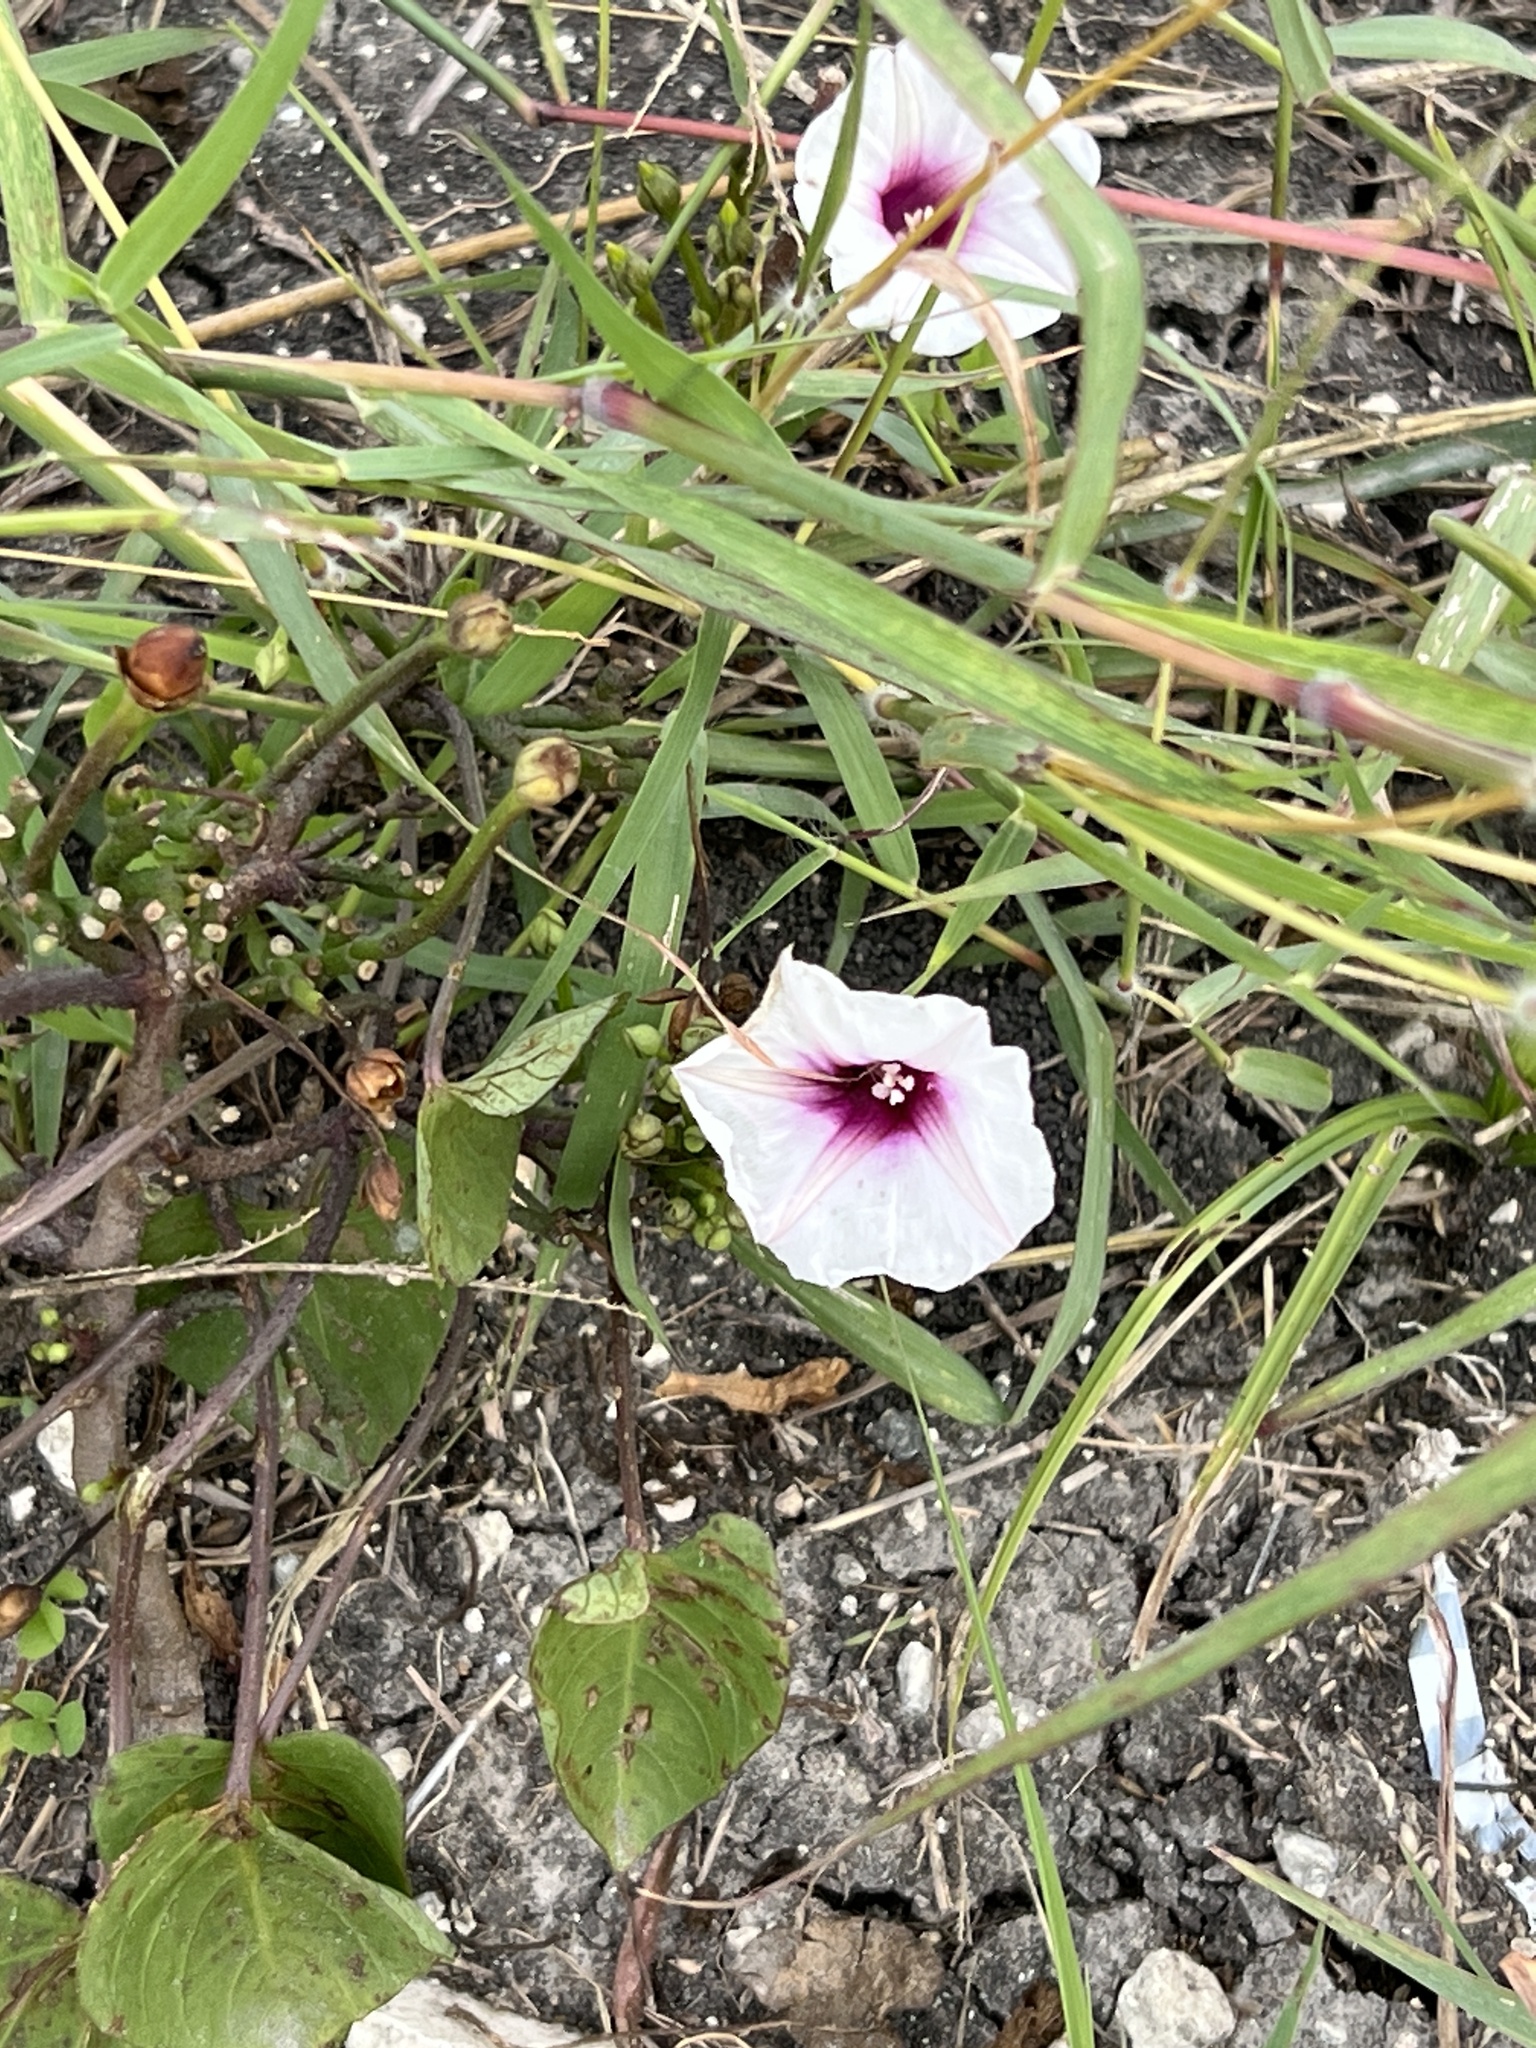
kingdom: Plantae
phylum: Tracheophyta
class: Magnoliopsida
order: Solanales
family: Convolvulaceae
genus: Ipomoea
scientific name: Ipomoea amnicola
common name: Redcenter morning-glory
